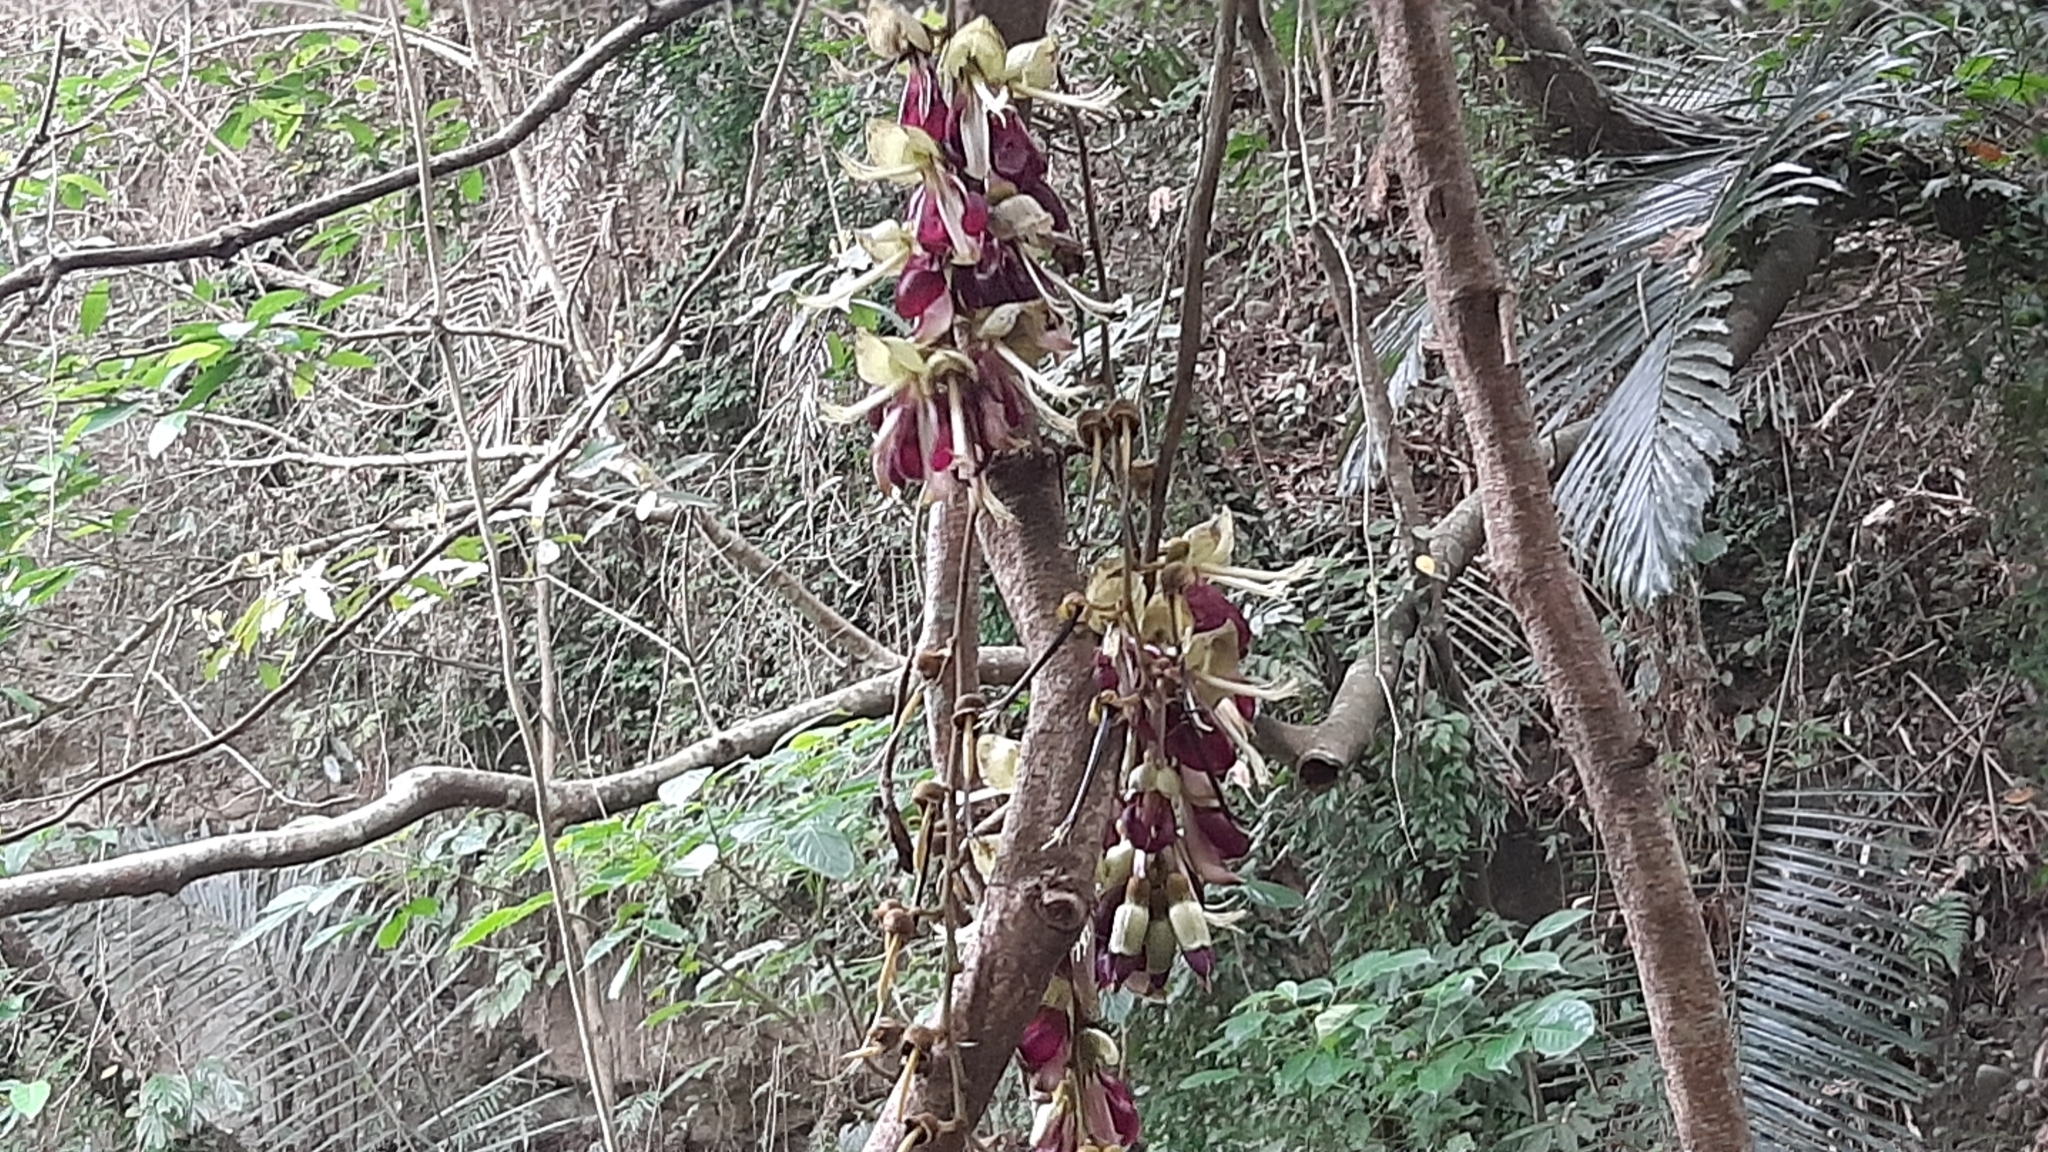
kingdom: Plantae
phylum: Tracheophyta
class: Magnoliopsida
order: Fabales
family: Fabaceae
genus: Mucuna
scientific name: Mucuna macrocarpa
